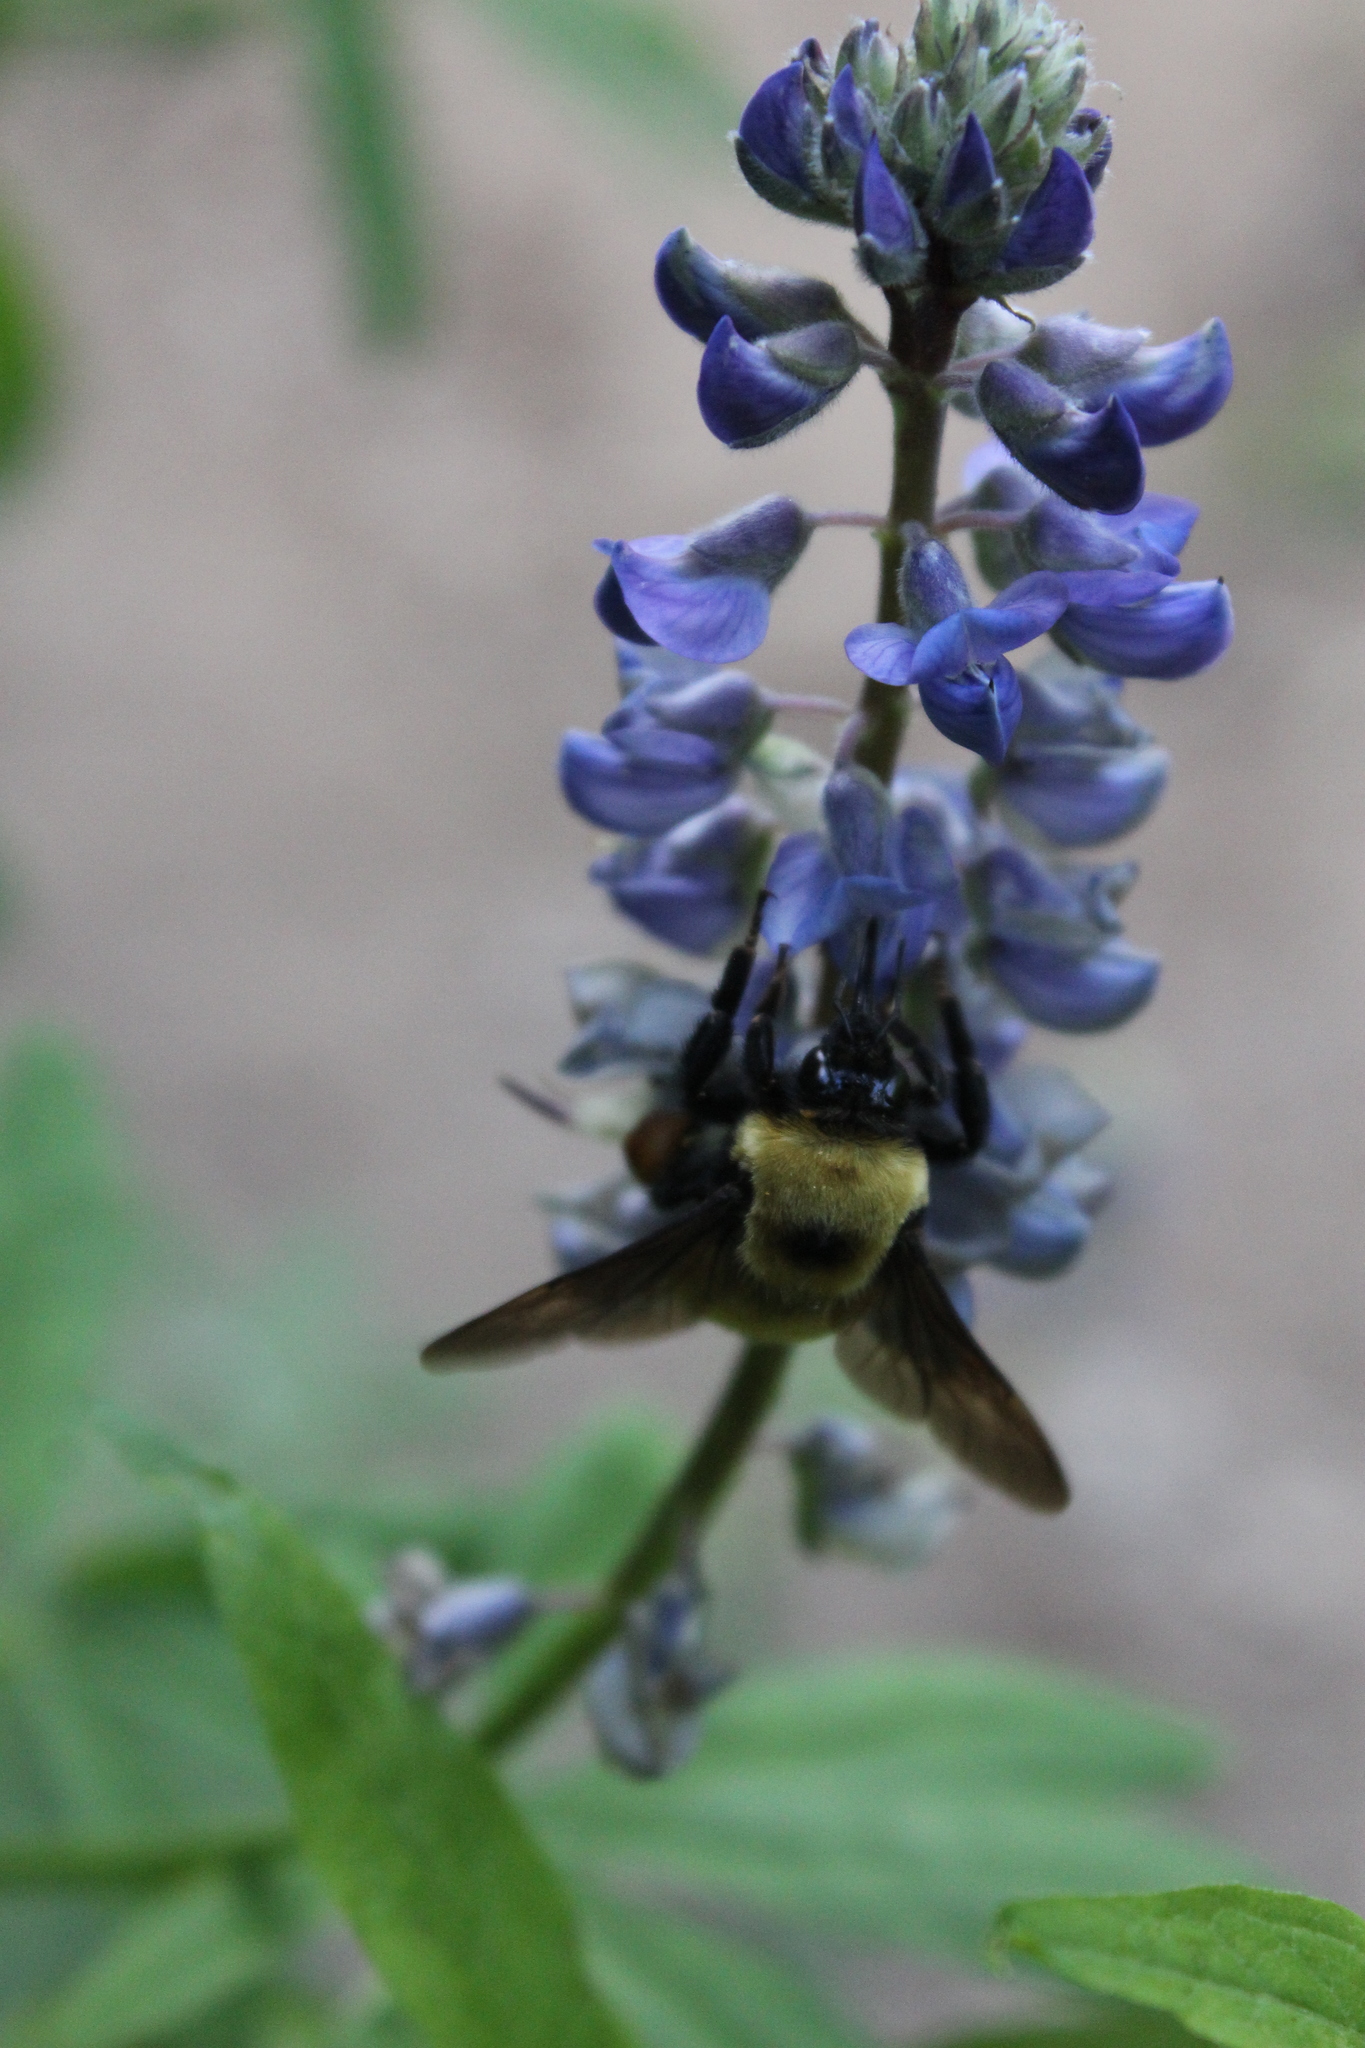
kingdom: Animalia
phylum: Arthropoda
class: Insecta
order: Hymenoptera
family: Apidae
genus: Bombus
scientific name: Bombus
